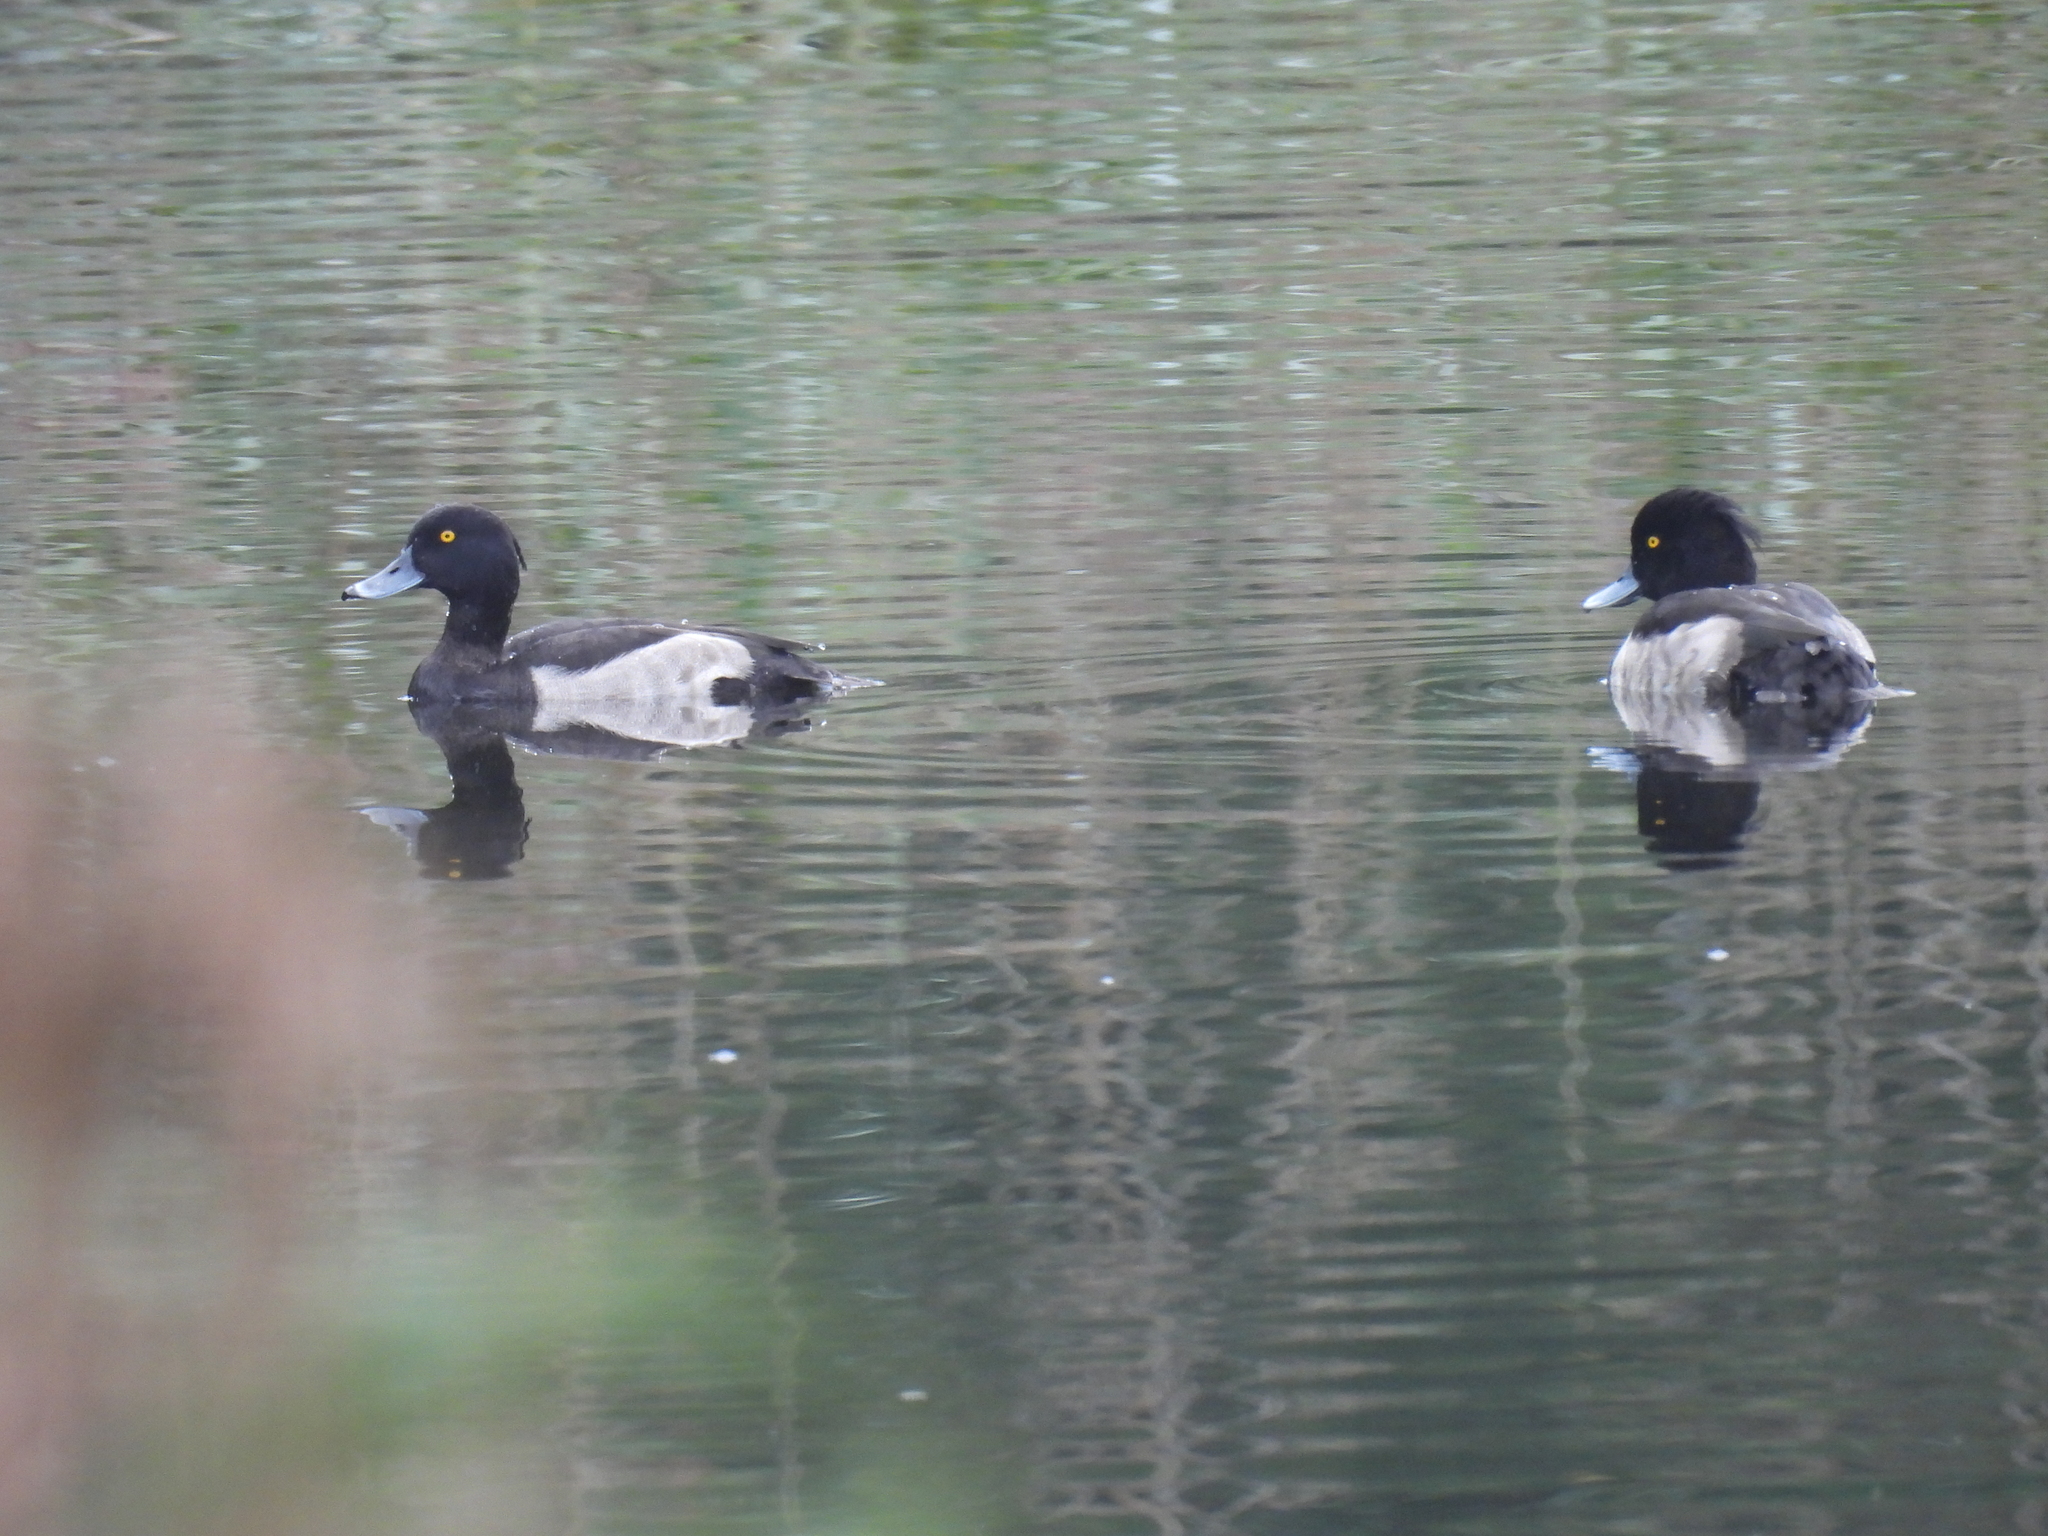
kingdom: Animalia
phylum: Chordata
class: Aves
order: Anseriformes
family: Anatidae
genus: Aythya
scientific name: Aythya fuligula
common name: Tufted duck
